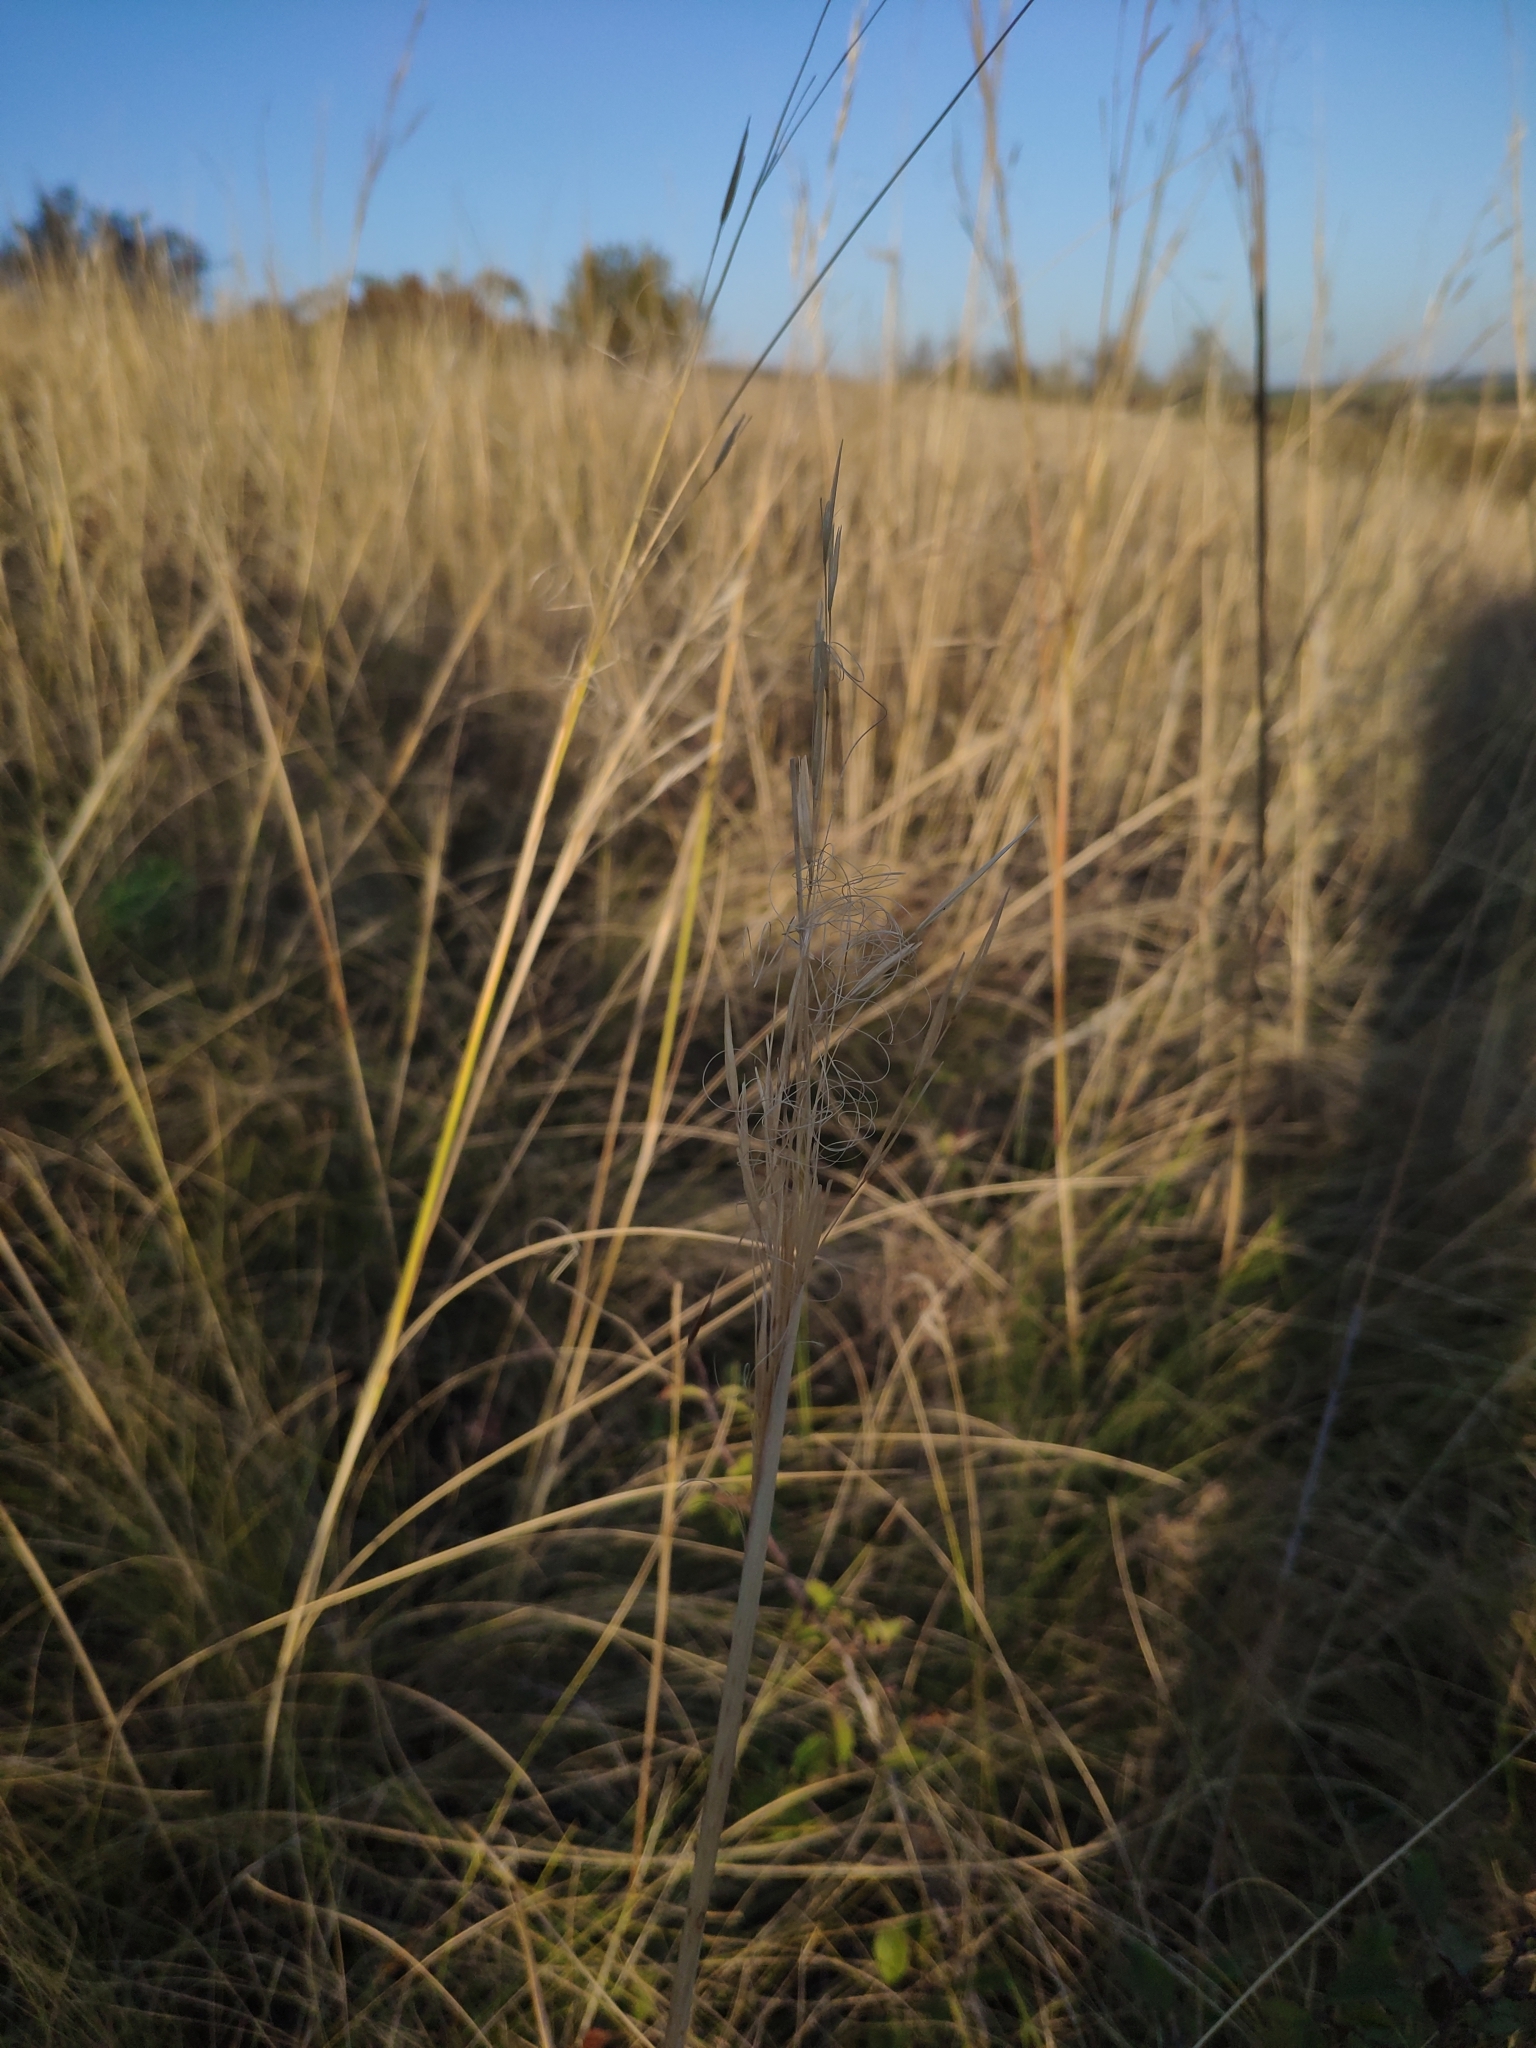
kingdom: Plantae
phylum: Tracheophyta
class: Liliopsida
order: Poales
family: Poaceae
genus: Stipa
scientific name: Stipa capillata
